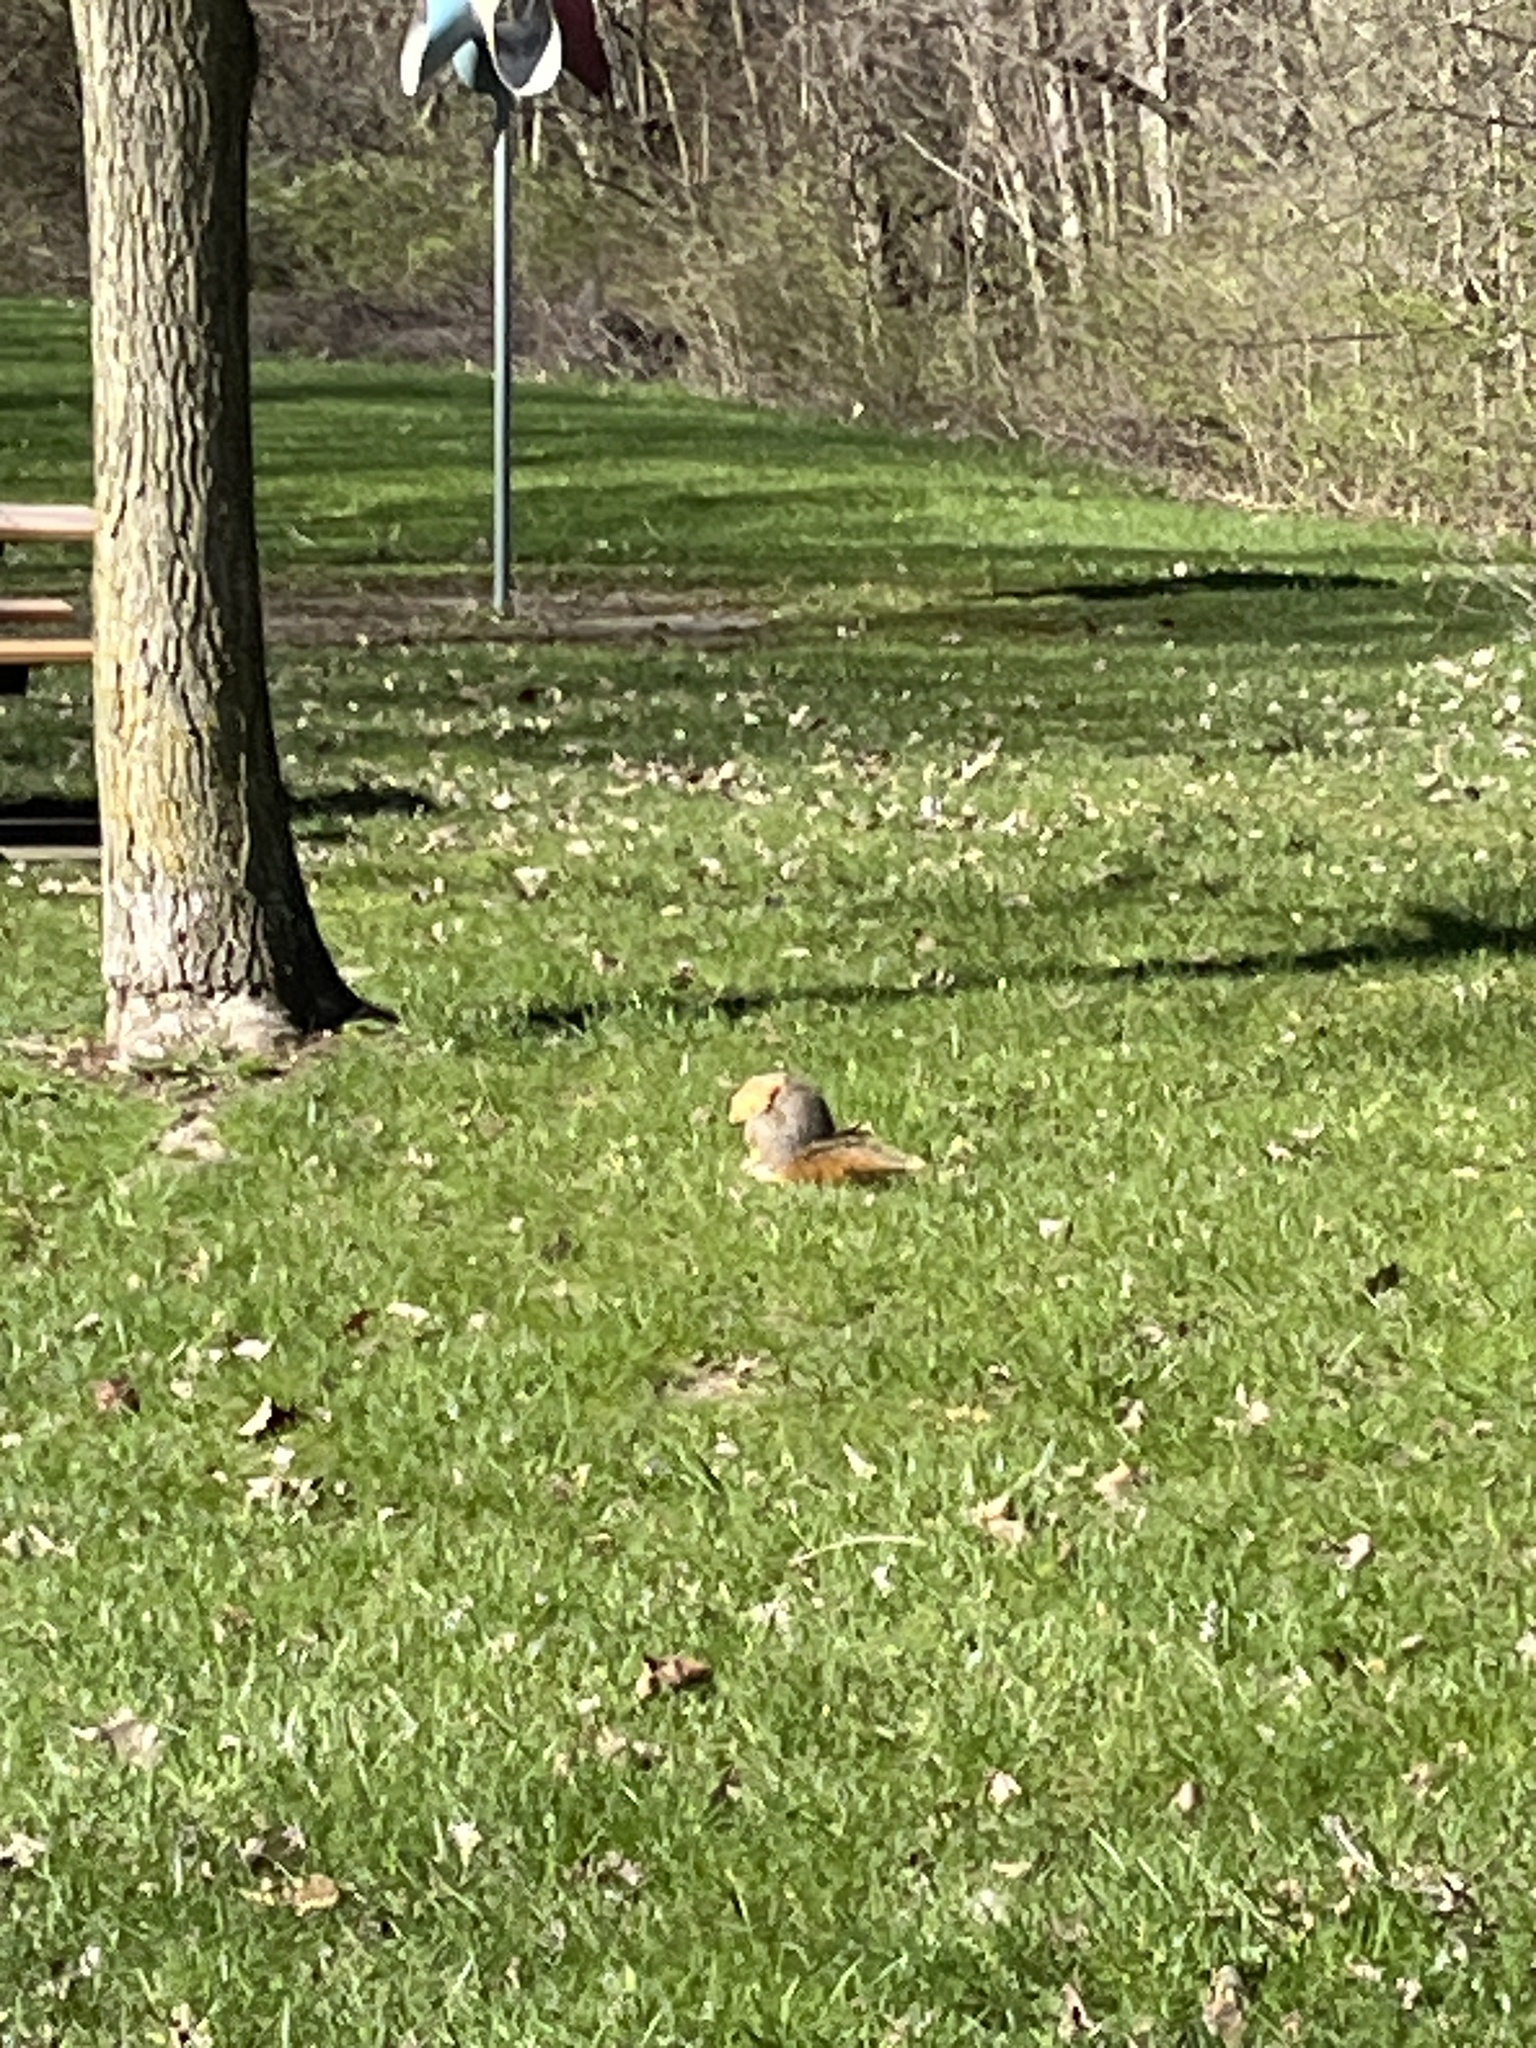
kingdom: Animalia
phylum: Chordata
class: Mammalia
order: Rodentia
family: Sciuridae
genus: Sciurus
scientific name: Sciurus niger
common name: Fox squirrel
